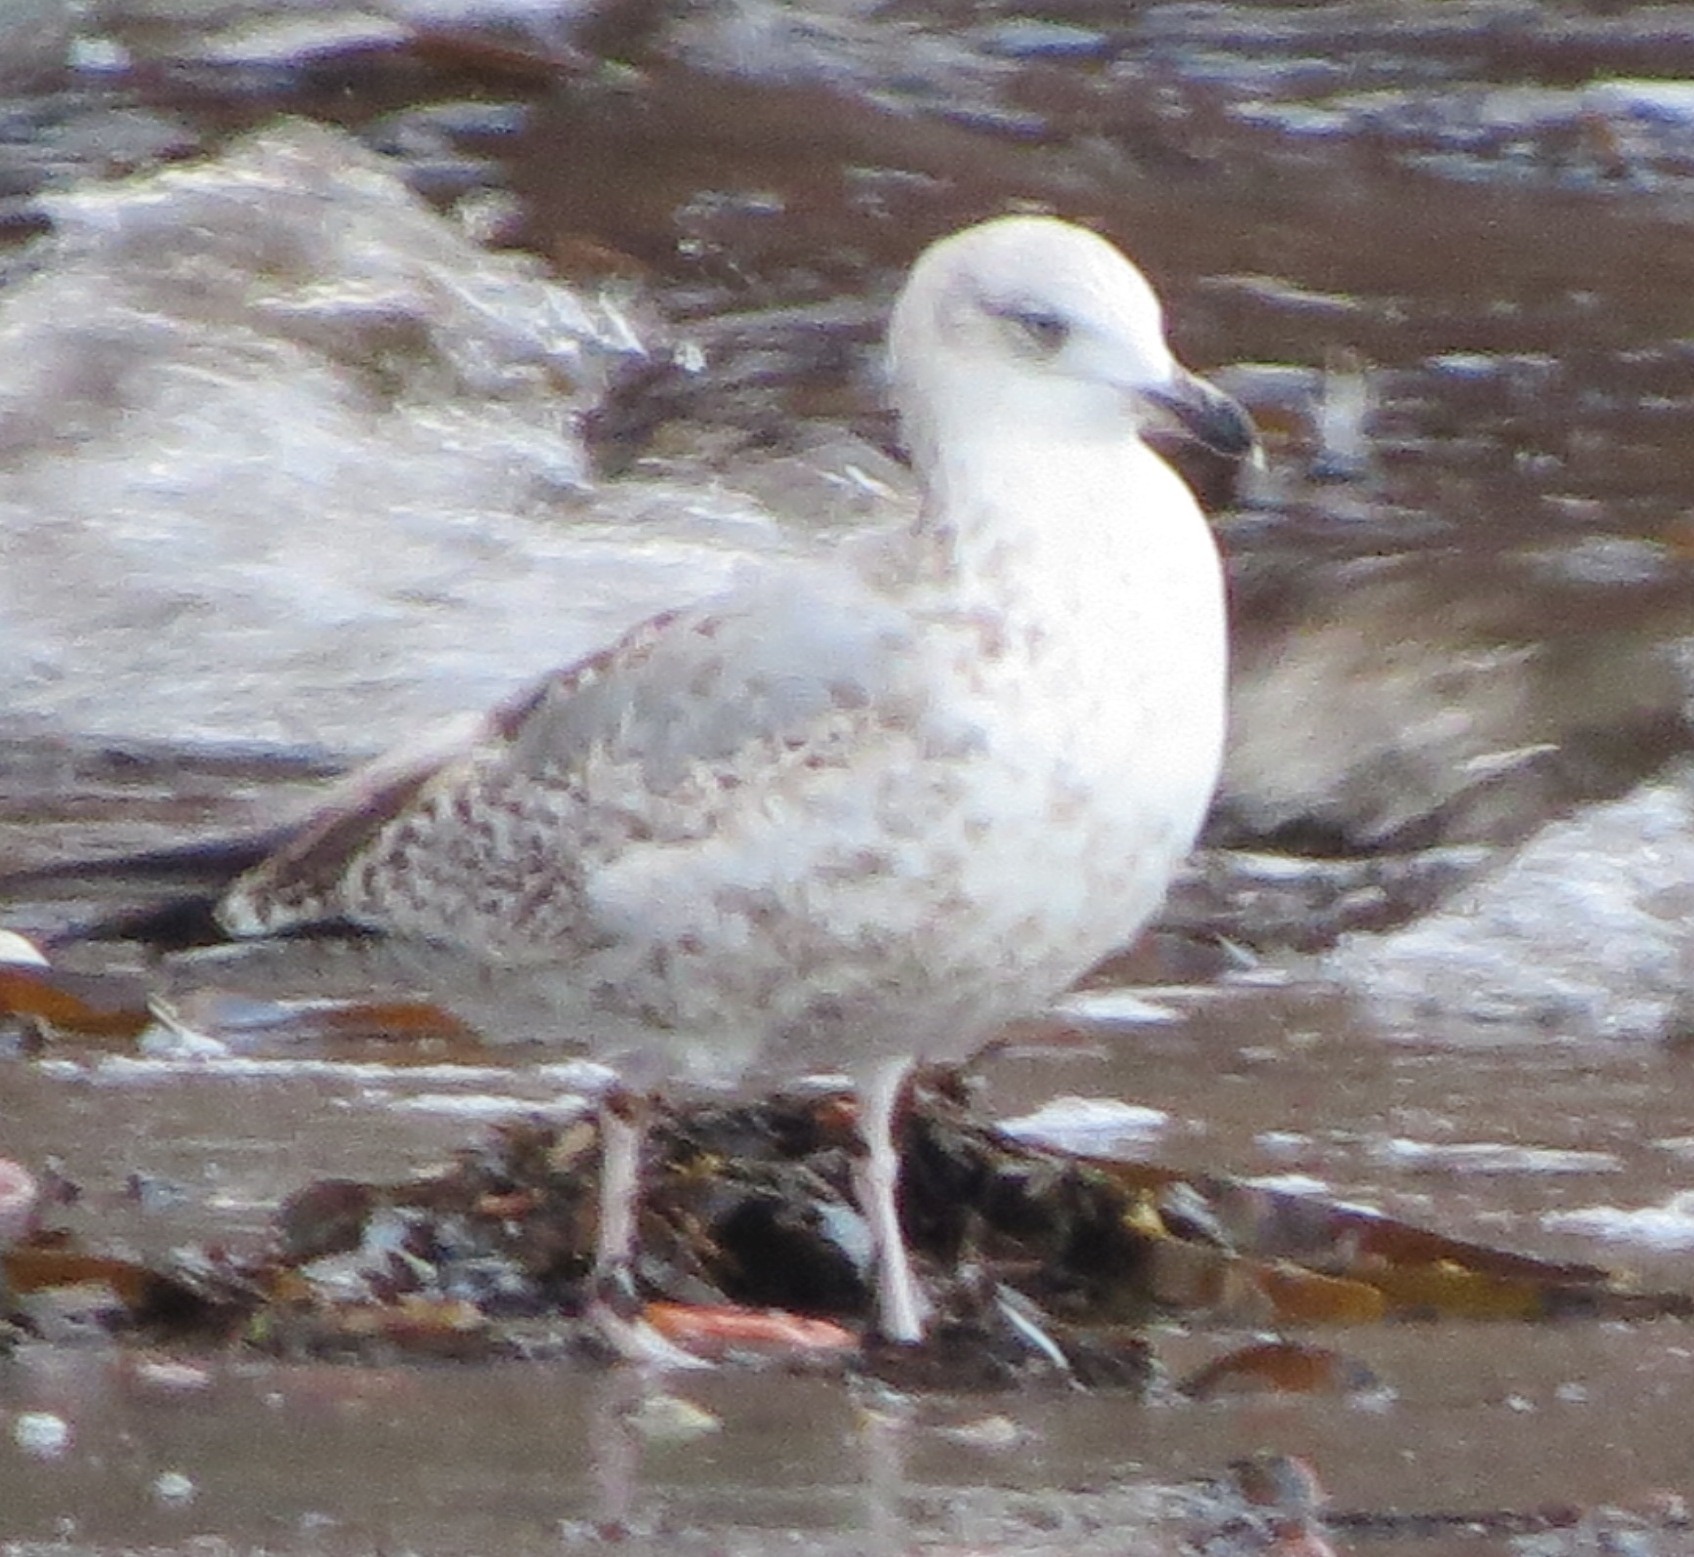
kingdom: Animalia
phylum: Chordata
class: Aves
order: Charadriiformes
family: Laridae
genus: Larus
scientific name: Larus argentatus
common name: Herring gull
